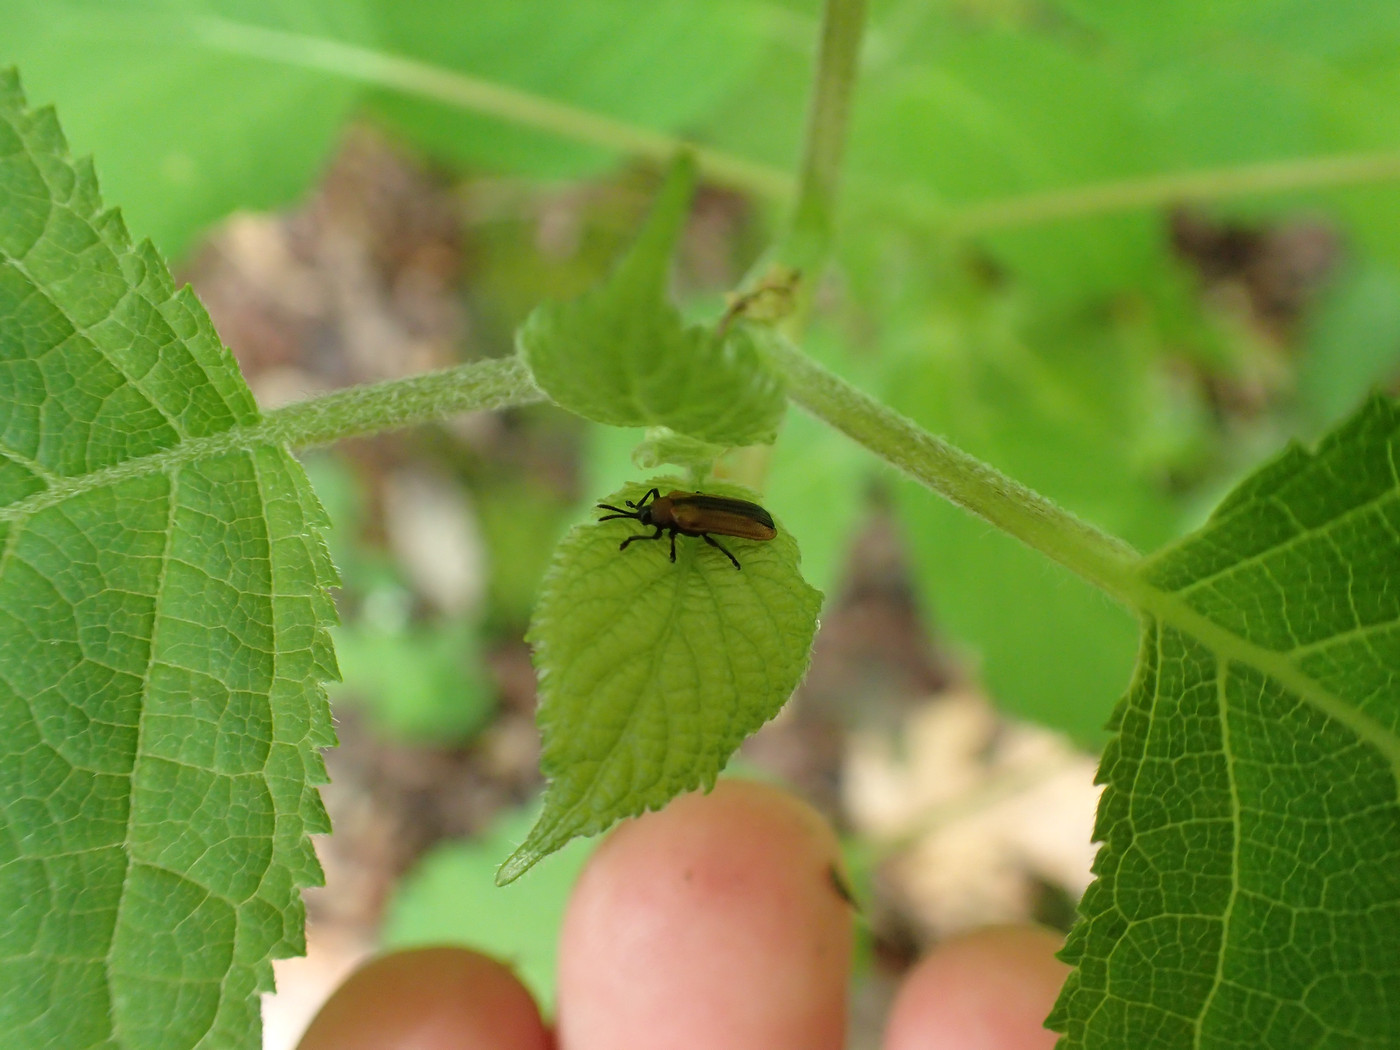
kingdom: Animalia
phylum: Arthropoda
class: Insecta
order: Coleoptera
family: Chrysomelidae
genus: Odontota
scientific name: Odontota dorsalis
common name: Locust leaf-miner beetle
